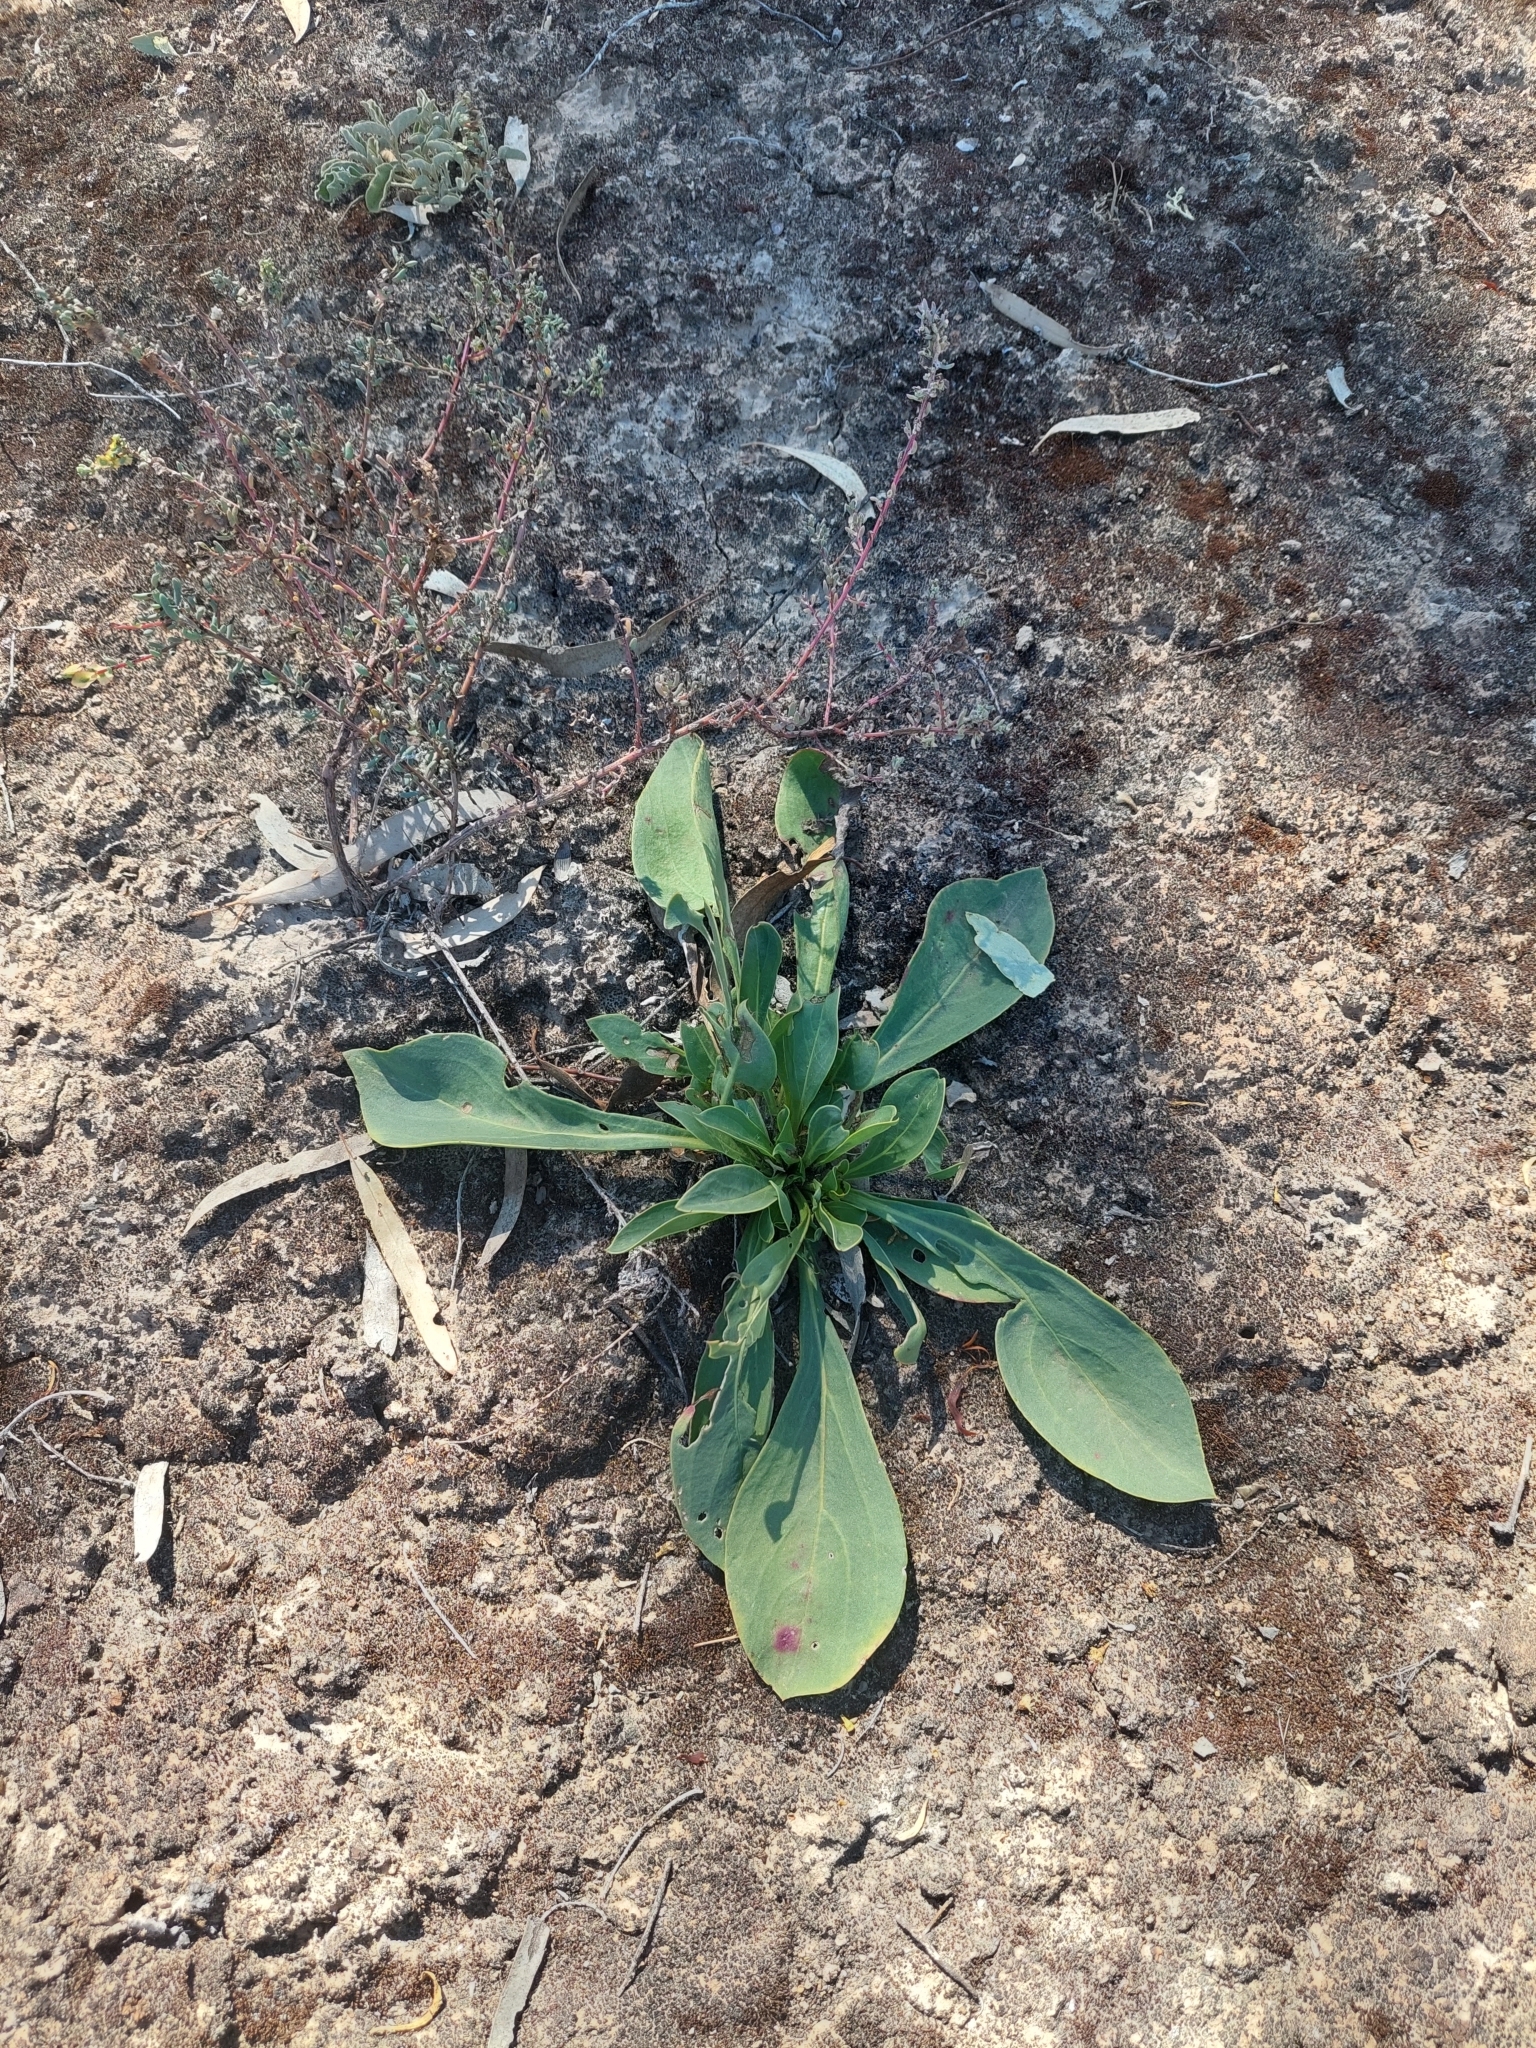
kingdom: Plantae
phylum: Tracheophyta
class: Magnoliopsida
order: Caryophyllales
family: Amaranthaceae
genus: Ptilotus
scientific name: Ptilotus nobilis
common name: Regal-foxtail
